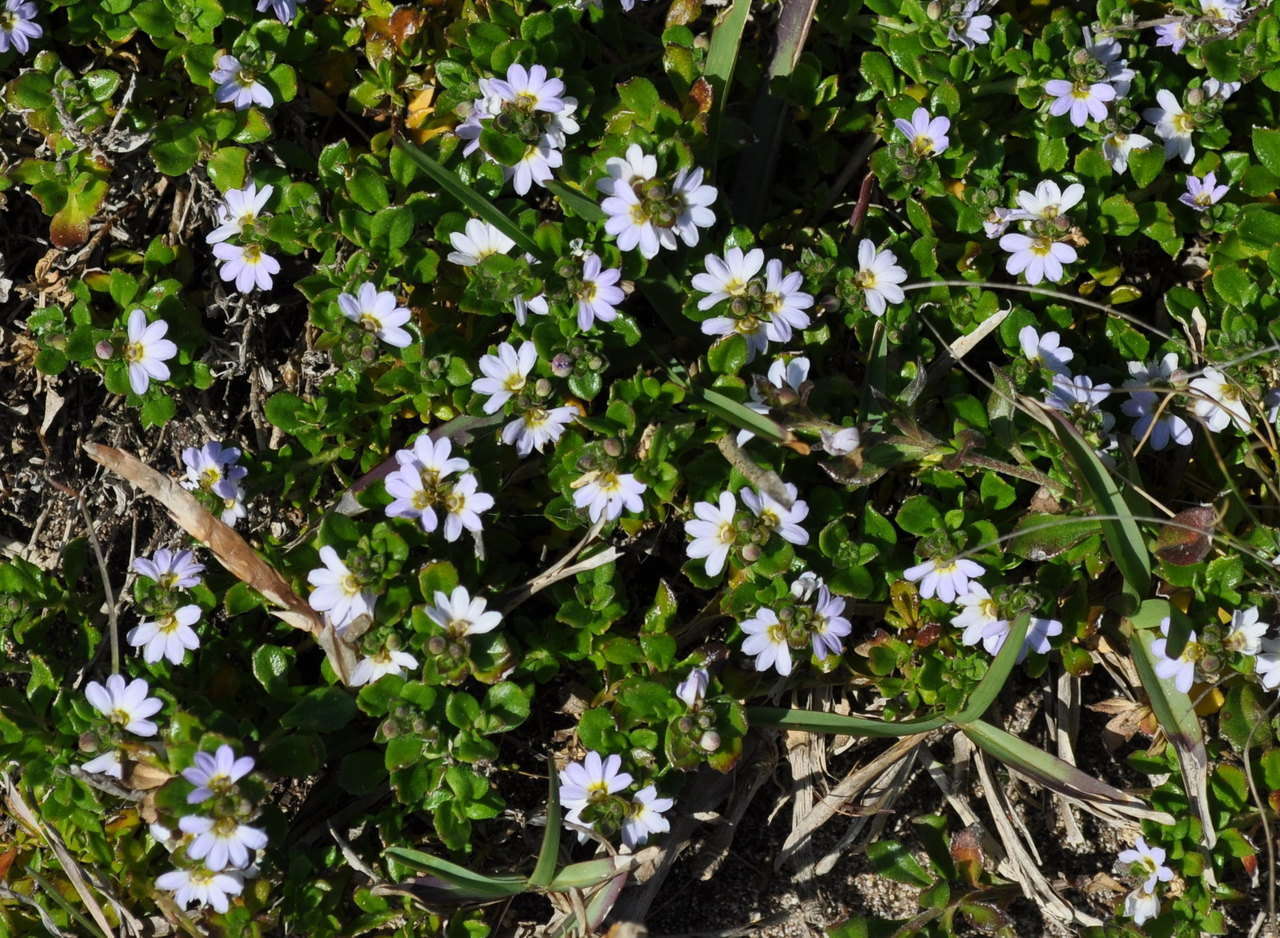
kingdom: Plantae
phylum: Tracheophyta
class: Magnoliopsida
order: Asterales
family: Goodeniaceae
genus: Scaevola
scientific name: Scaevola albida
